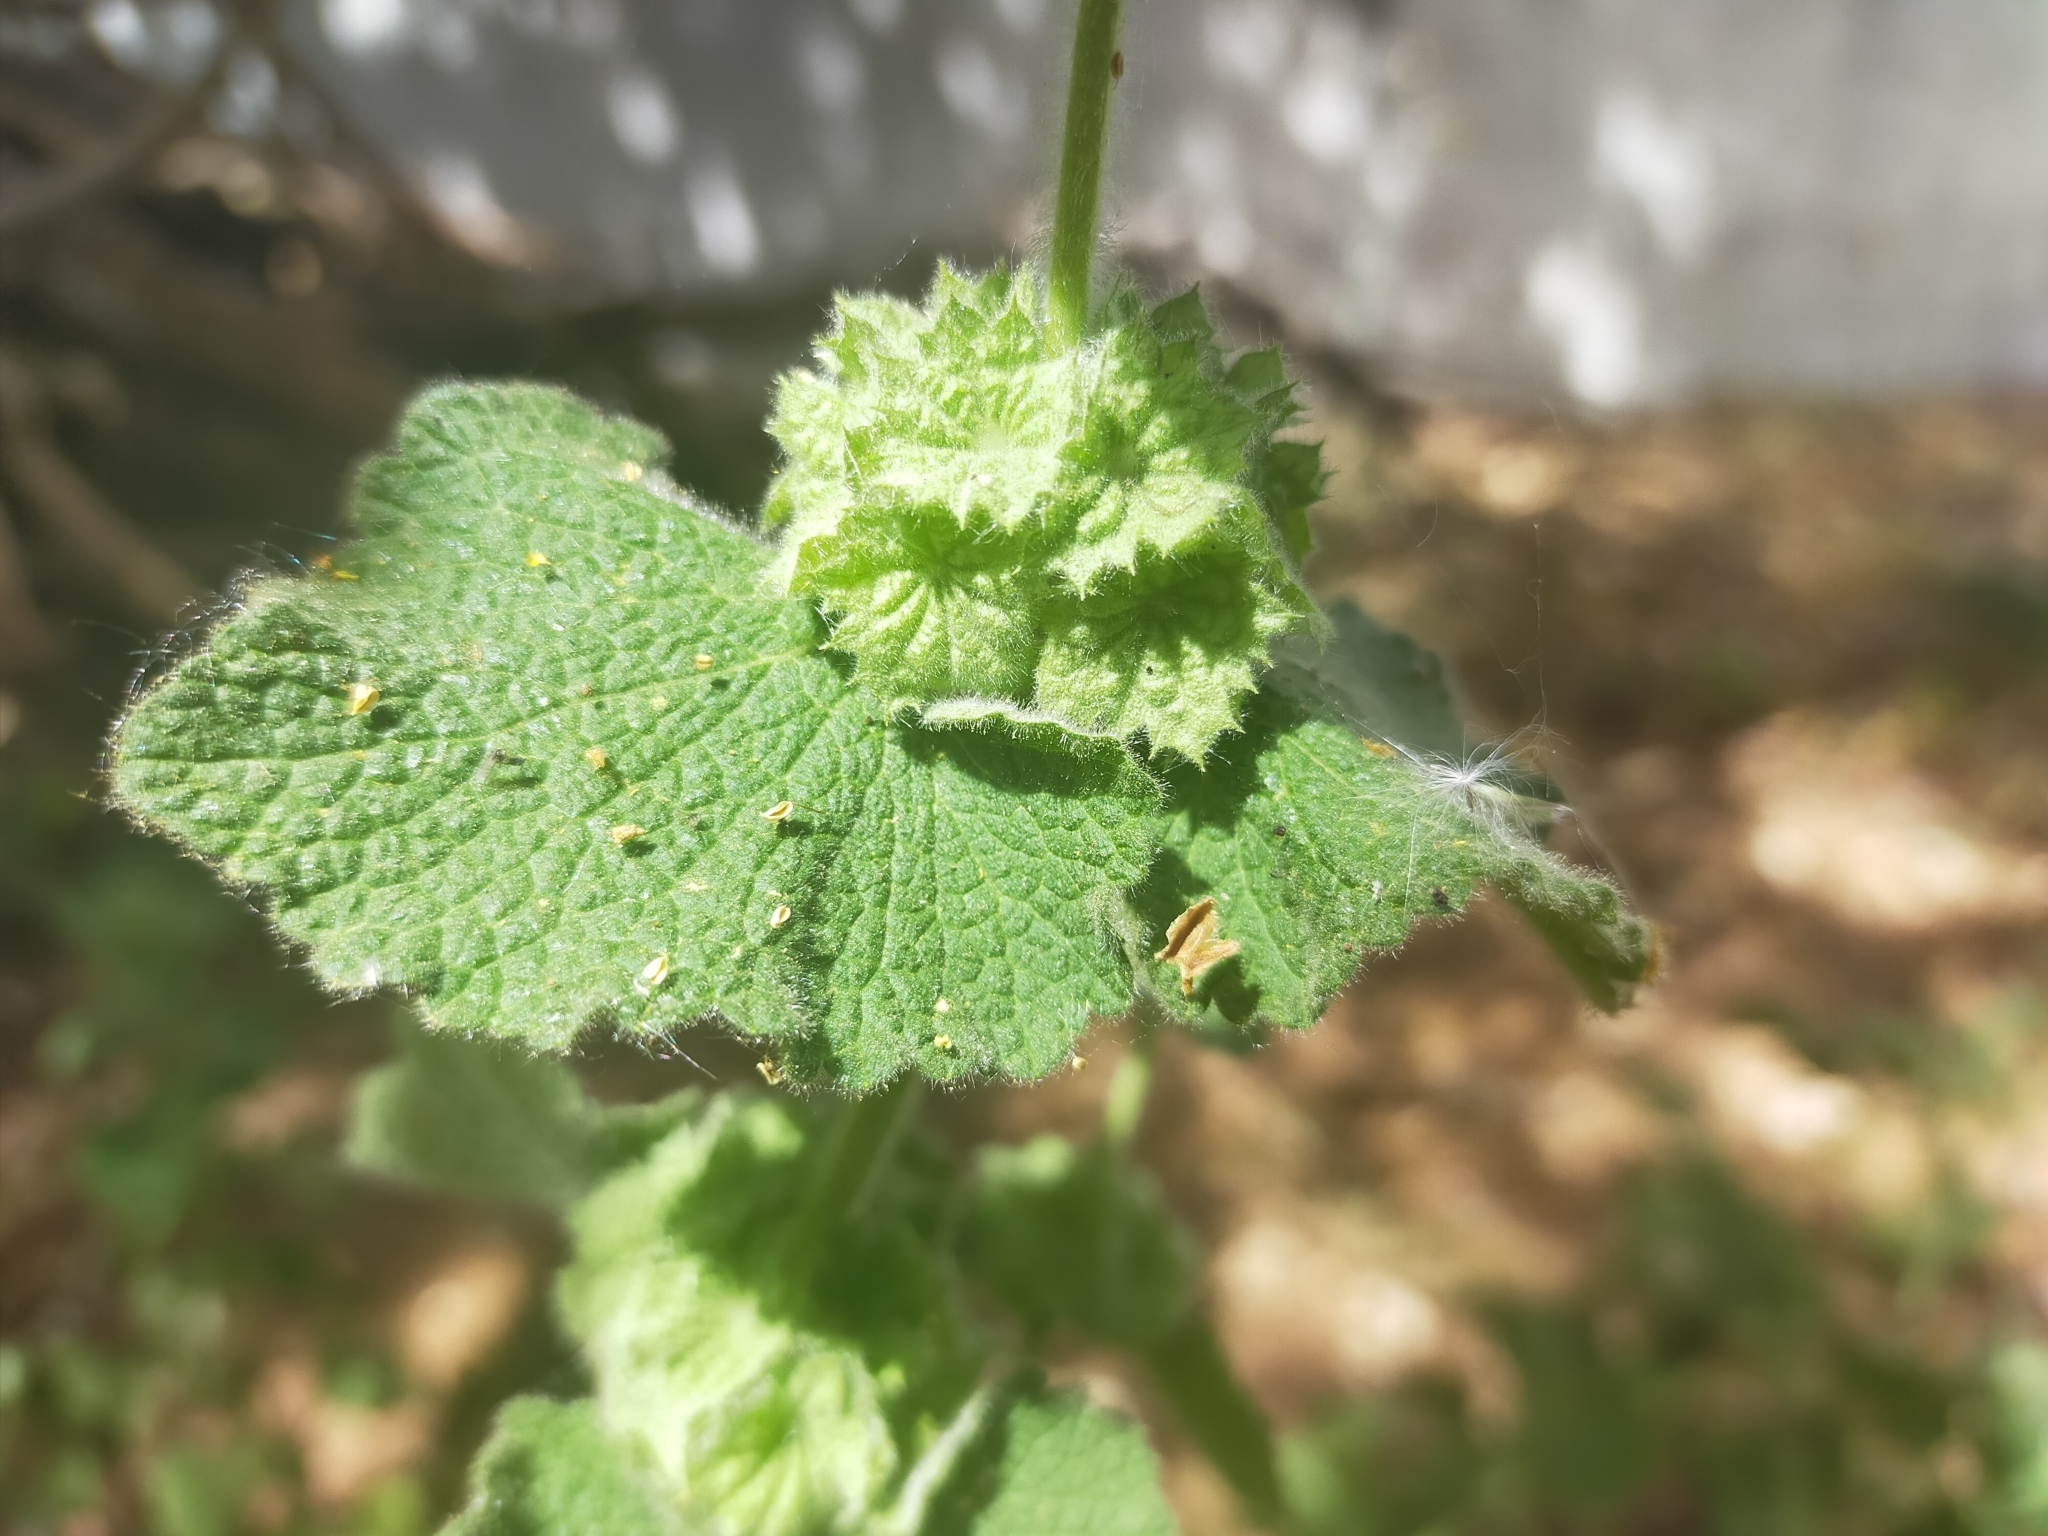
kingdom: Plantae
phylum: Tracheophyta
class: Magnoliopsida
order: Lamiales
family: Lamiaceae
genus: Pseudodictamnus
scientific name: Pseudodictamnus hirsutus
